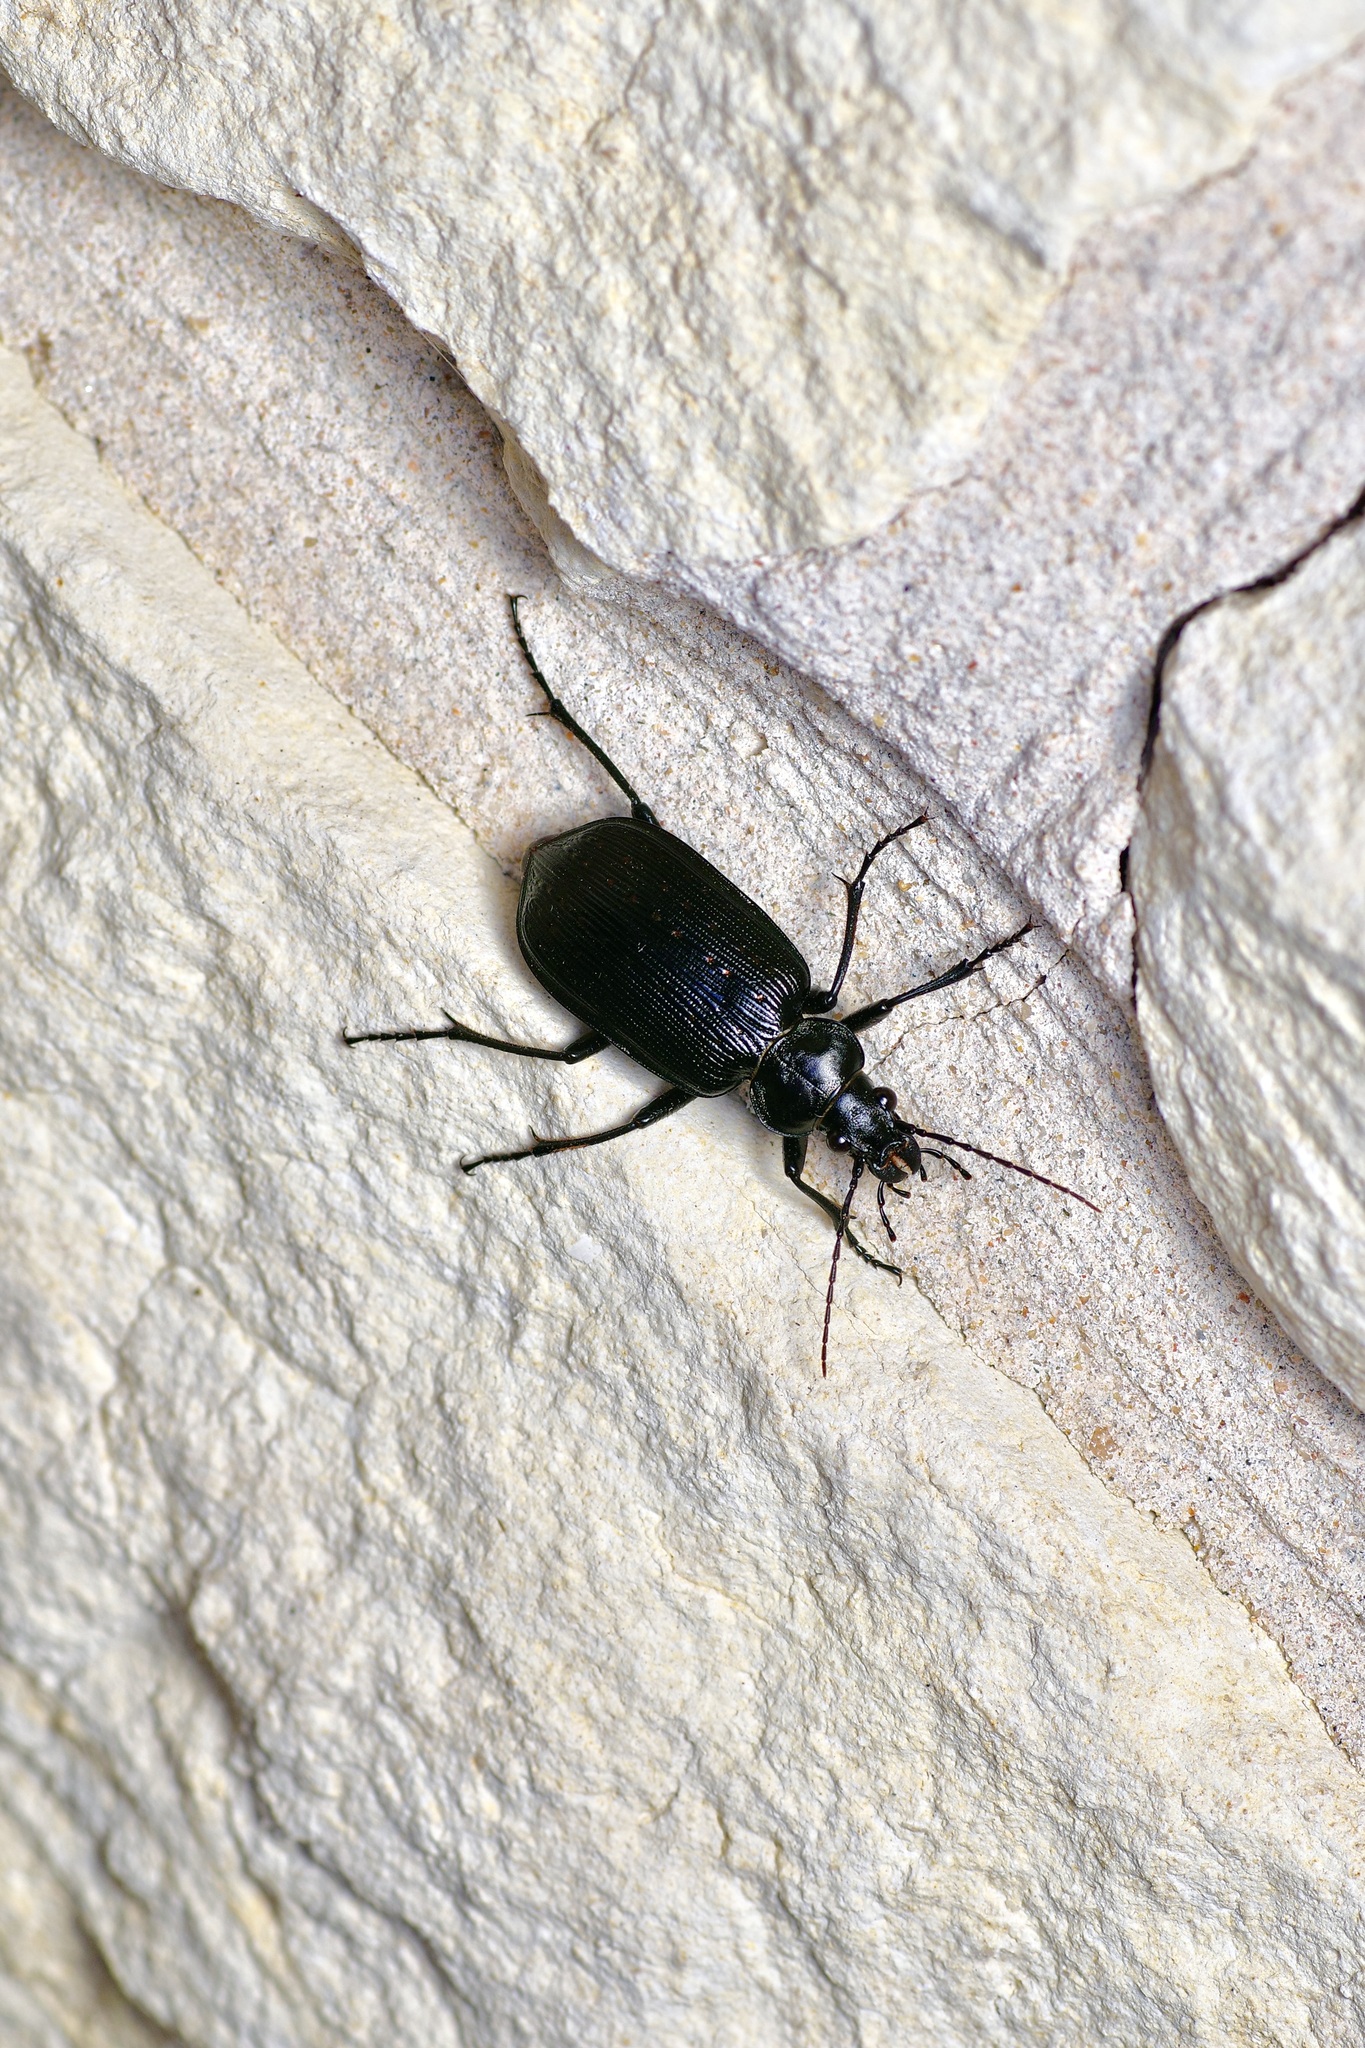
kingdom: Animalia
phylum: Arthropoda
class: Insecta
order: Coleoptera
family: Carabidae
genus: Calosoma
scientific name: Calosoma sayi
